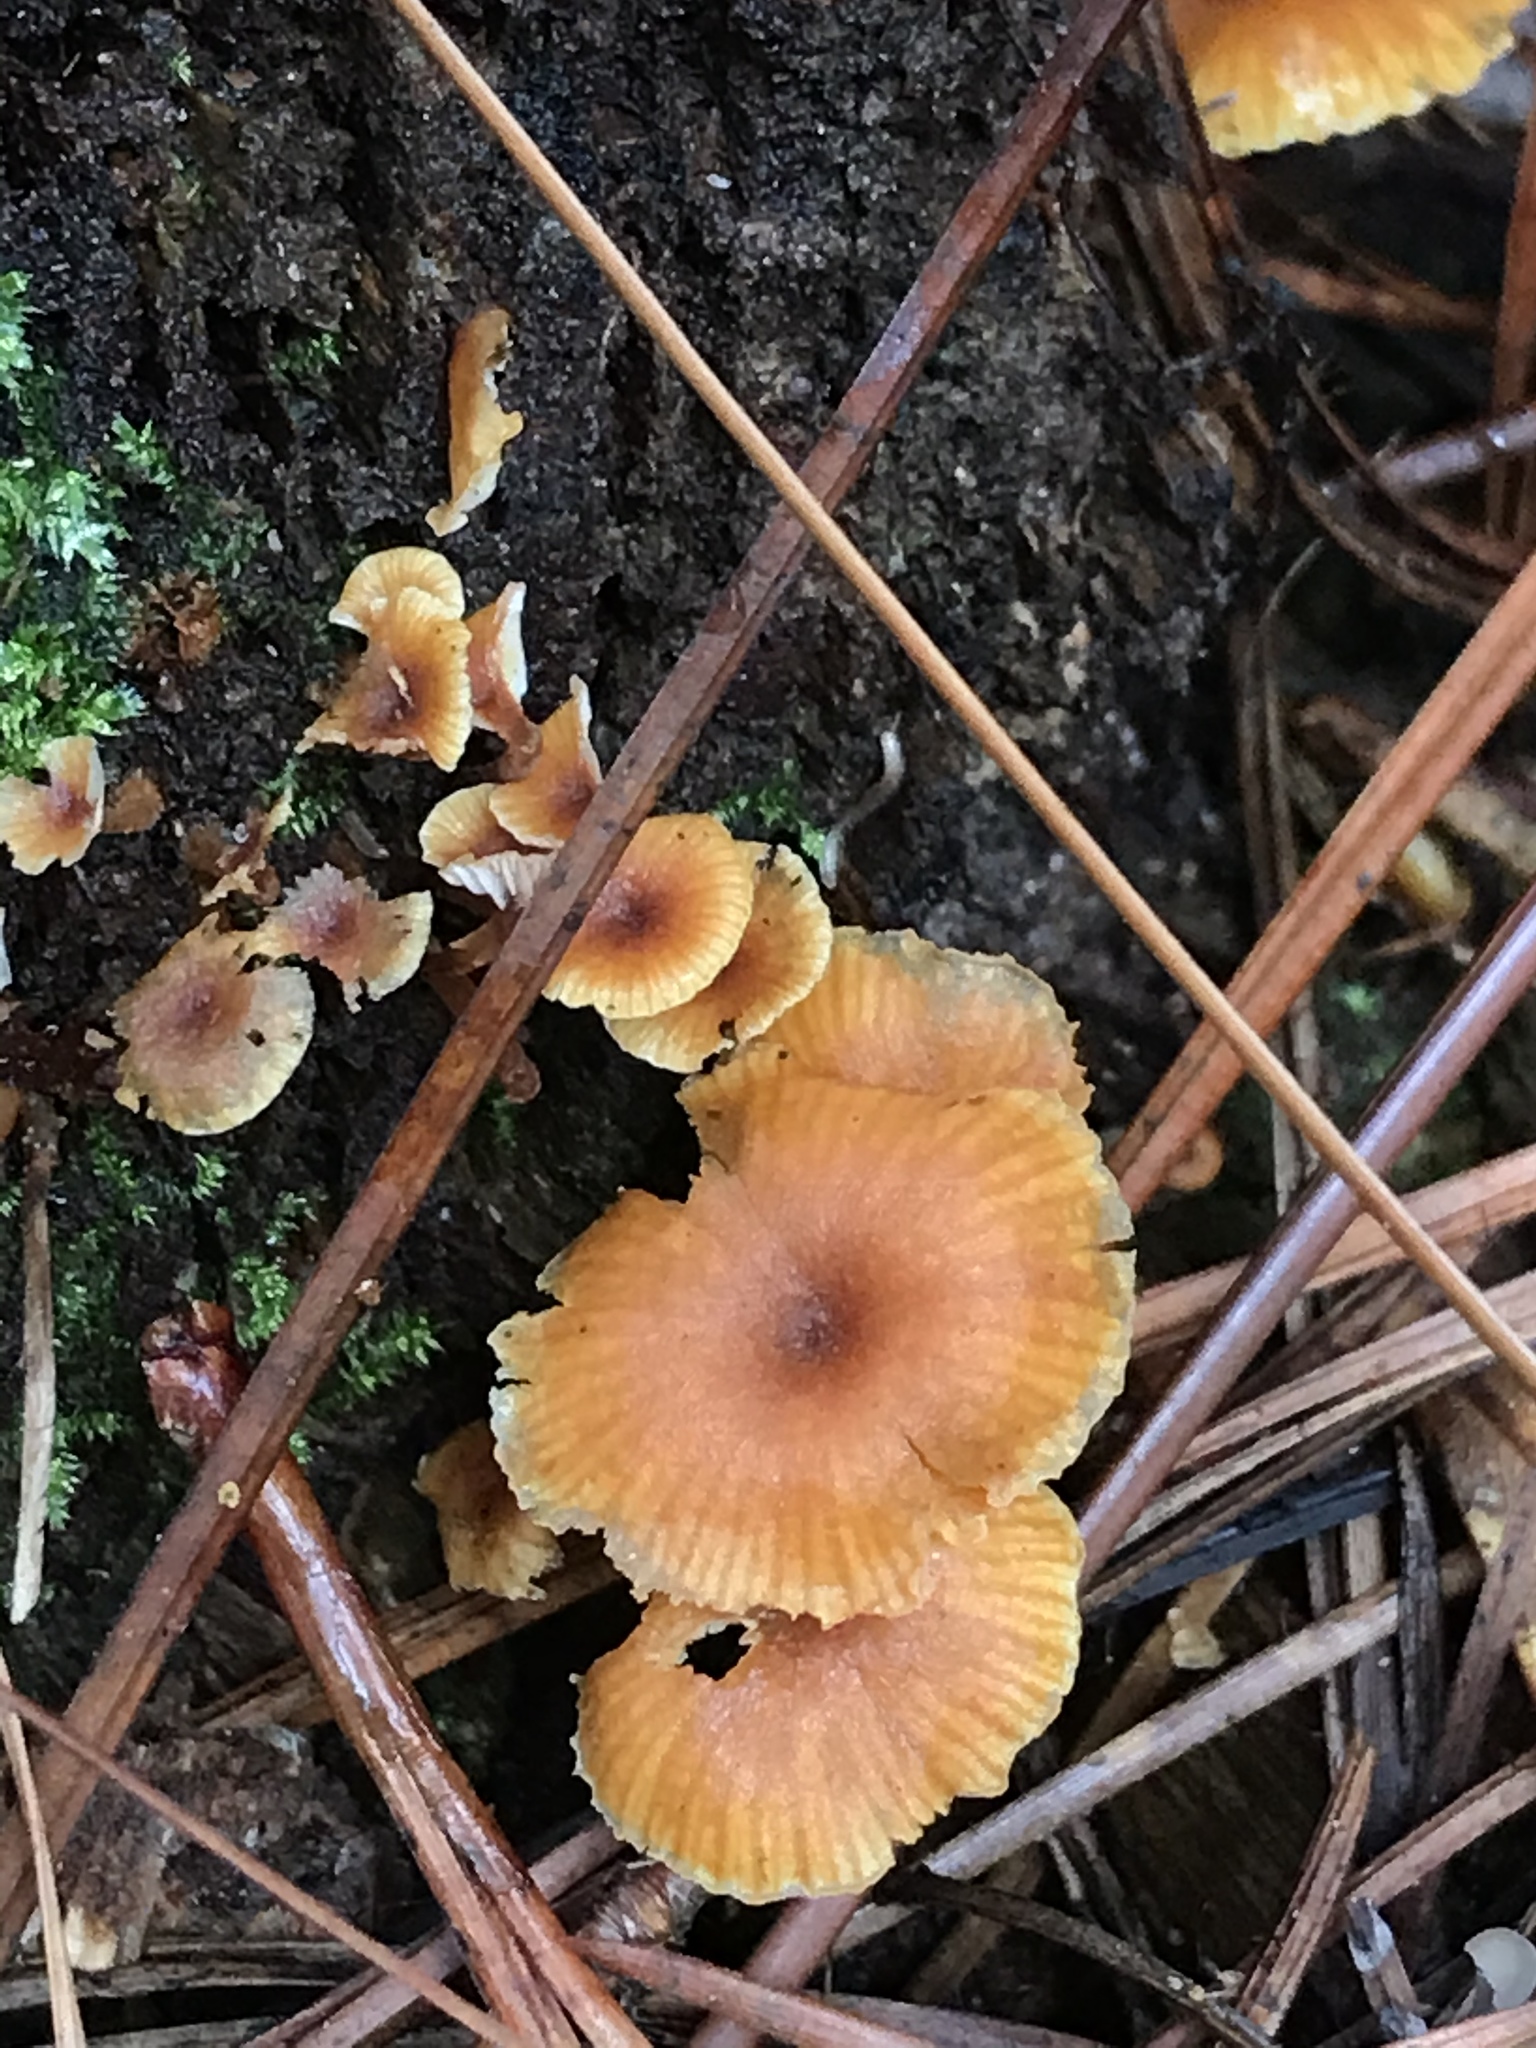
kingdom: Fungi
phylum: Basidiomycota
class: Agaricomycetes
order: Agaricales
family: Mycenaceae
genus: Xeromphalina
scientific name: Xeromphalina campanella
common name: Pinewood gingertail
